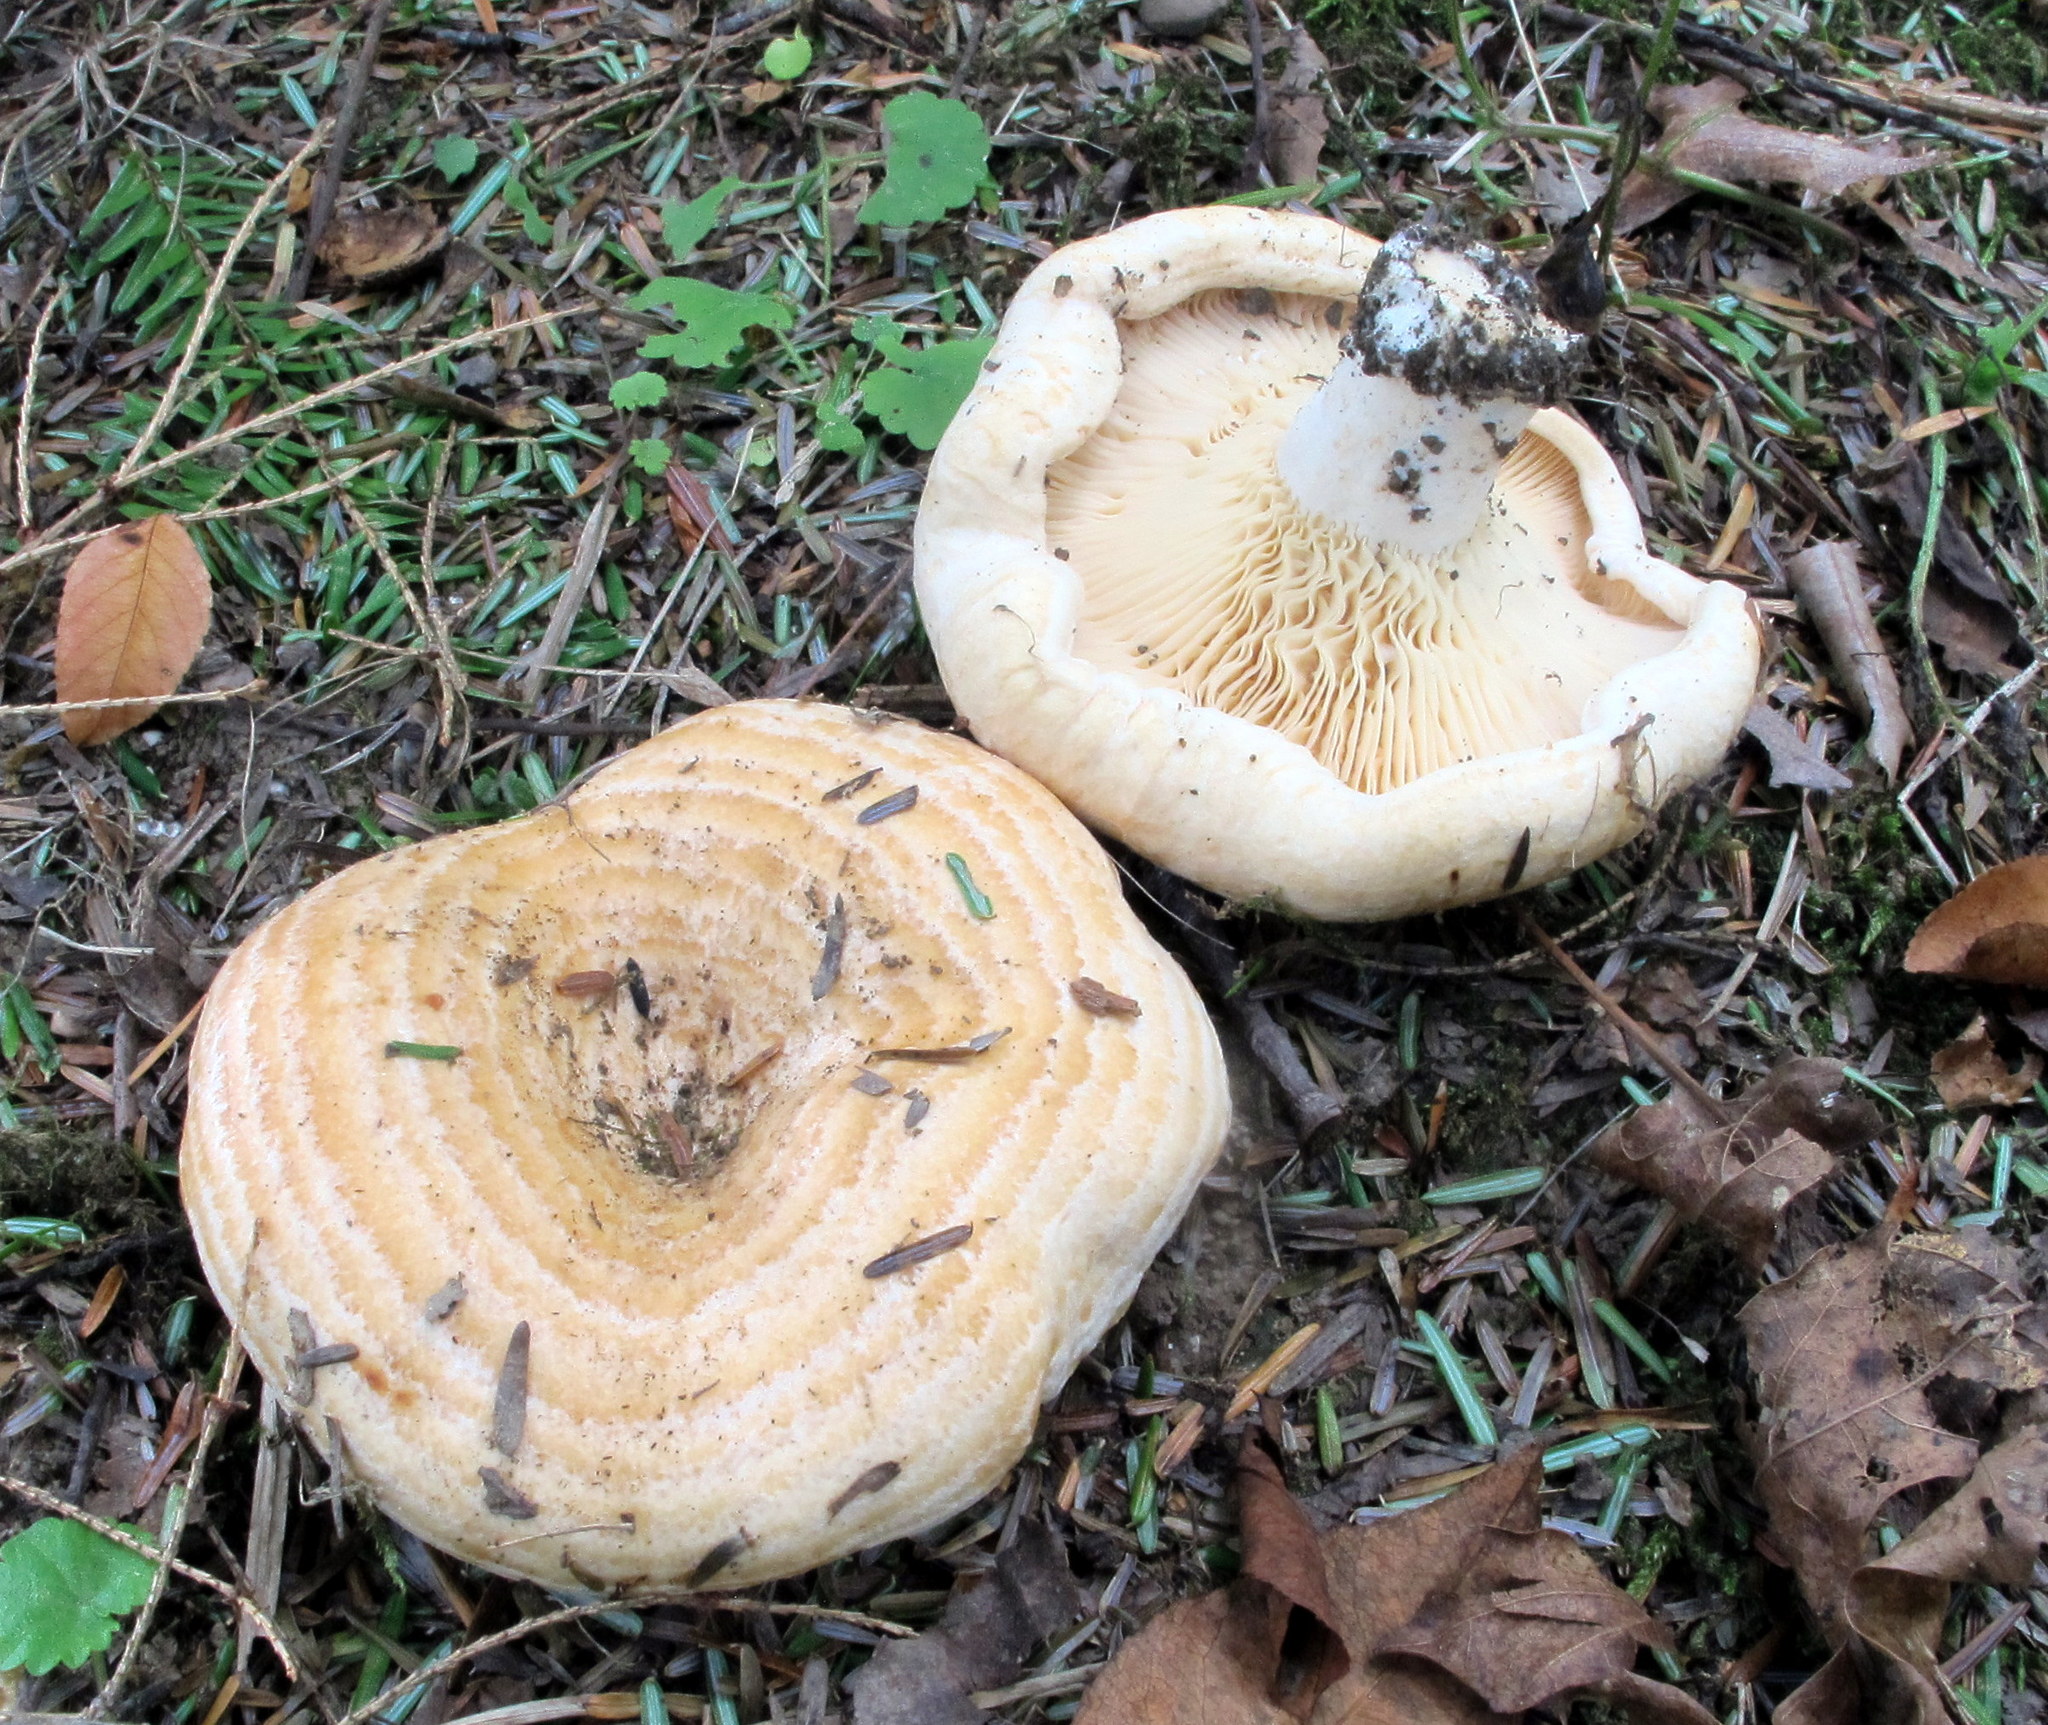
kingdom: Fungi
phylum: Basidiomycota
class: Agaricomycetes
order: Russulales
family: Russulaceae
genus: Lactarius
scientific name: Lactarius psammicola
